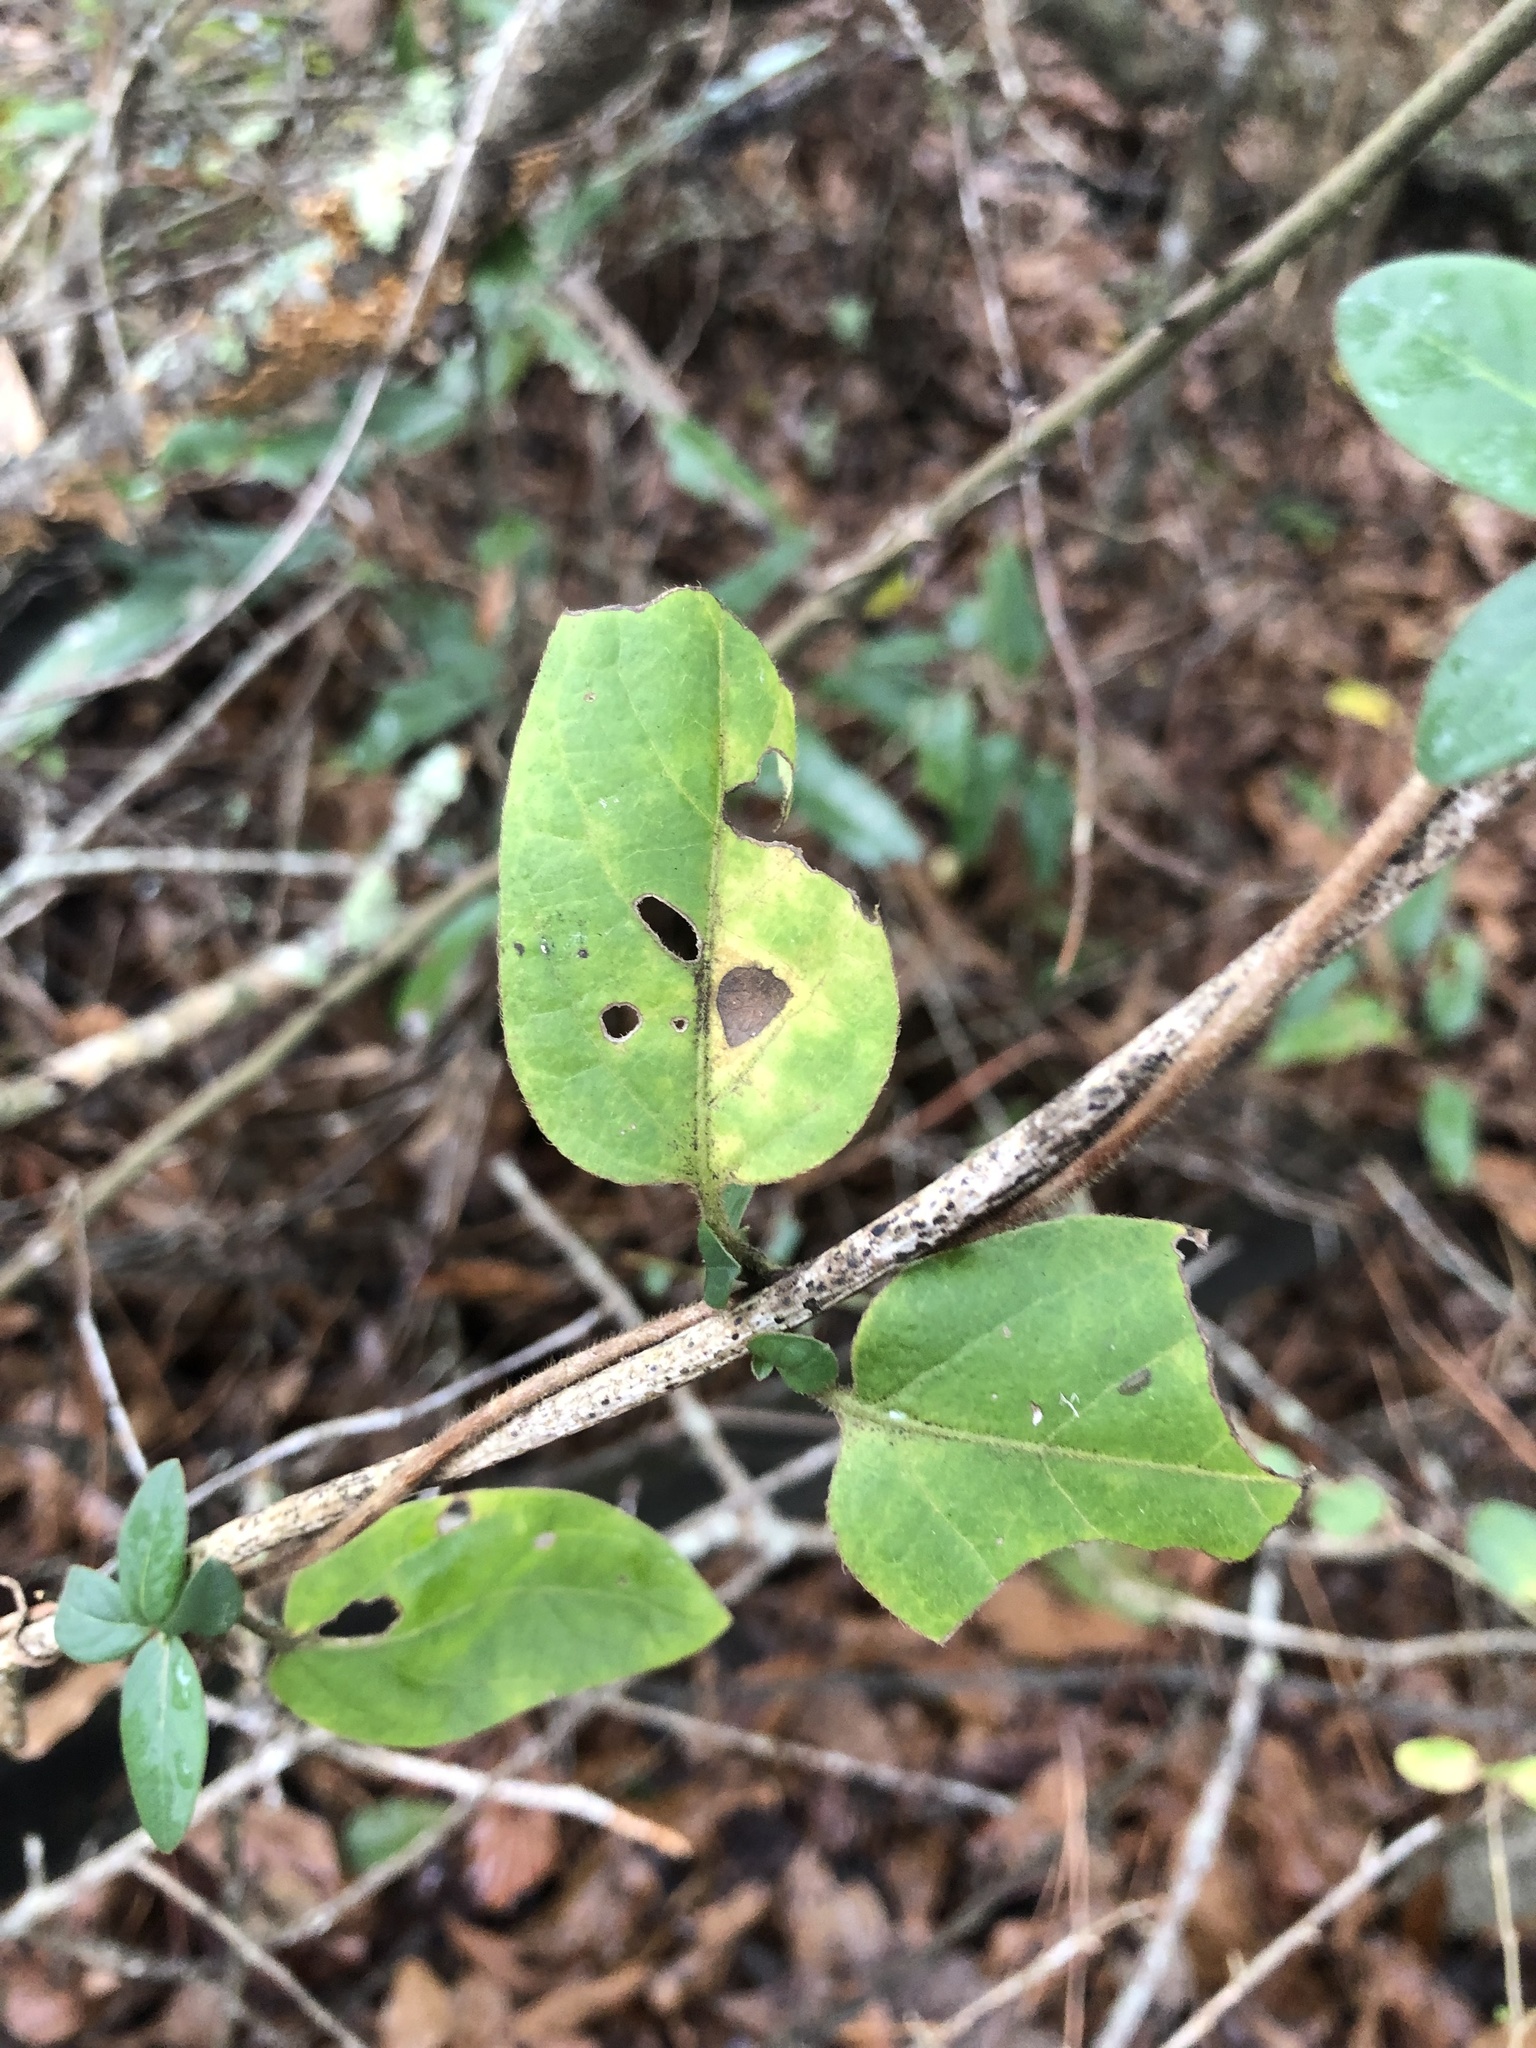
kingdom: Plantae
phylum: Tracheophyta
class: Magnoliopsida
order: Dipsacales
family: Caprifoliaceae
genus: Lonicera
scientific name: Lonicera japonica
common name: Japanese honeysuckle
